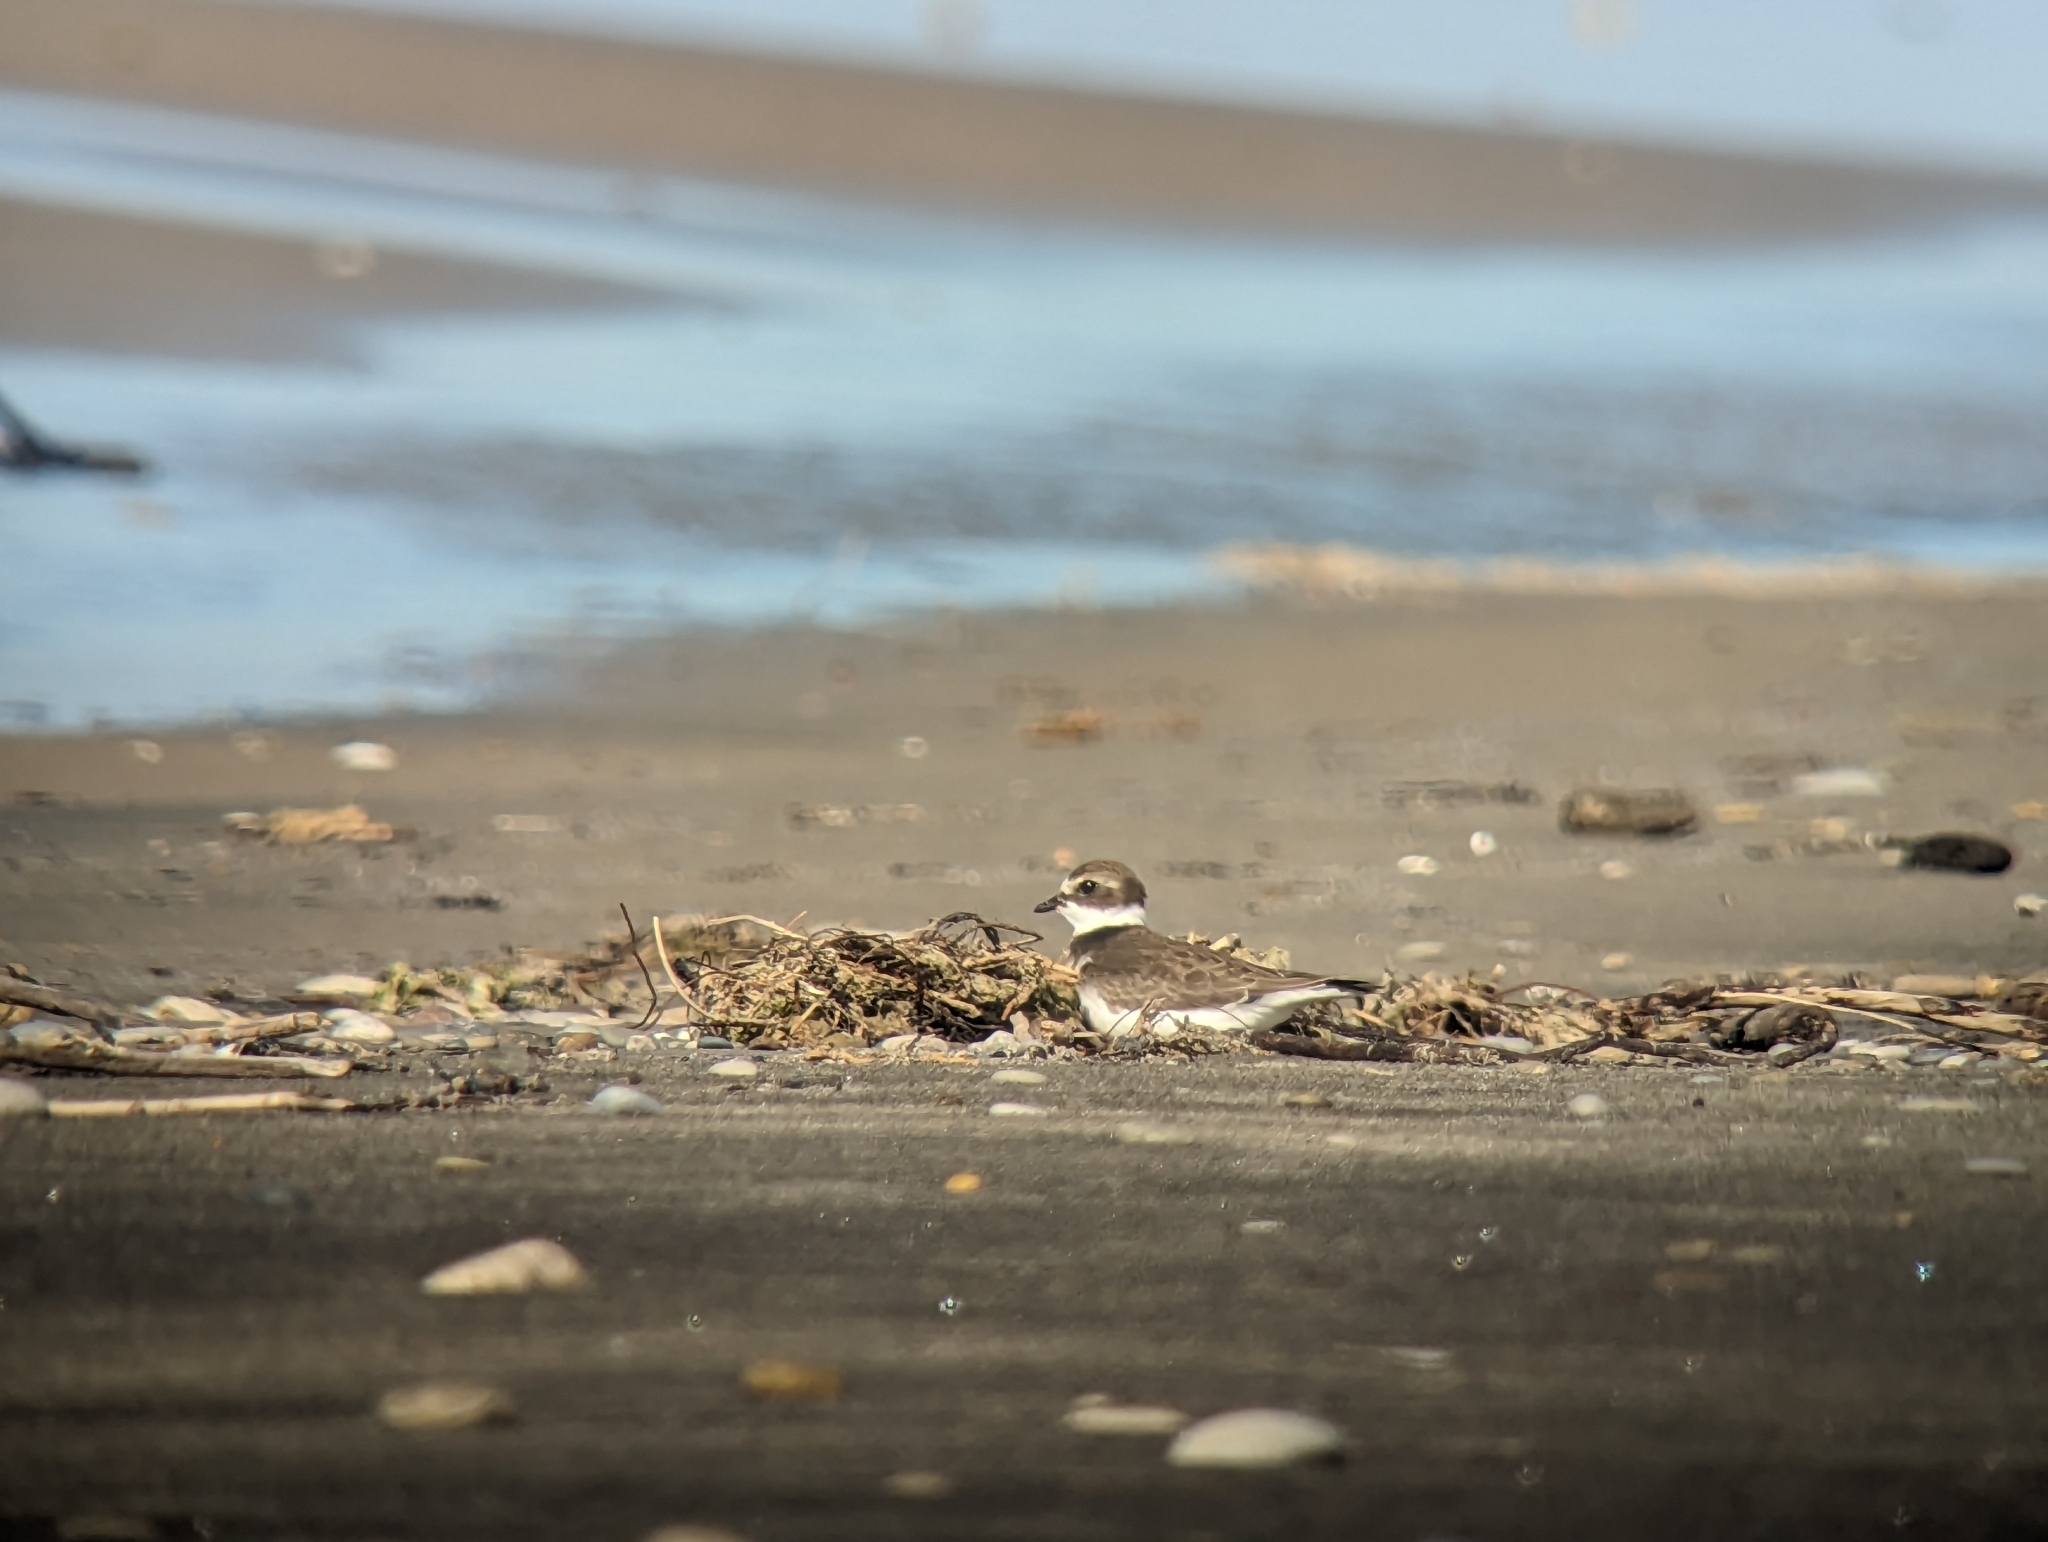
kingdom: Animalia
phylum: Chordata
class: Aves
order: Charadriiformes
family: Charadriidae
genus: Charadrius
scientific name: Charadrius semipalmatus
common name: Semipalmated plover
